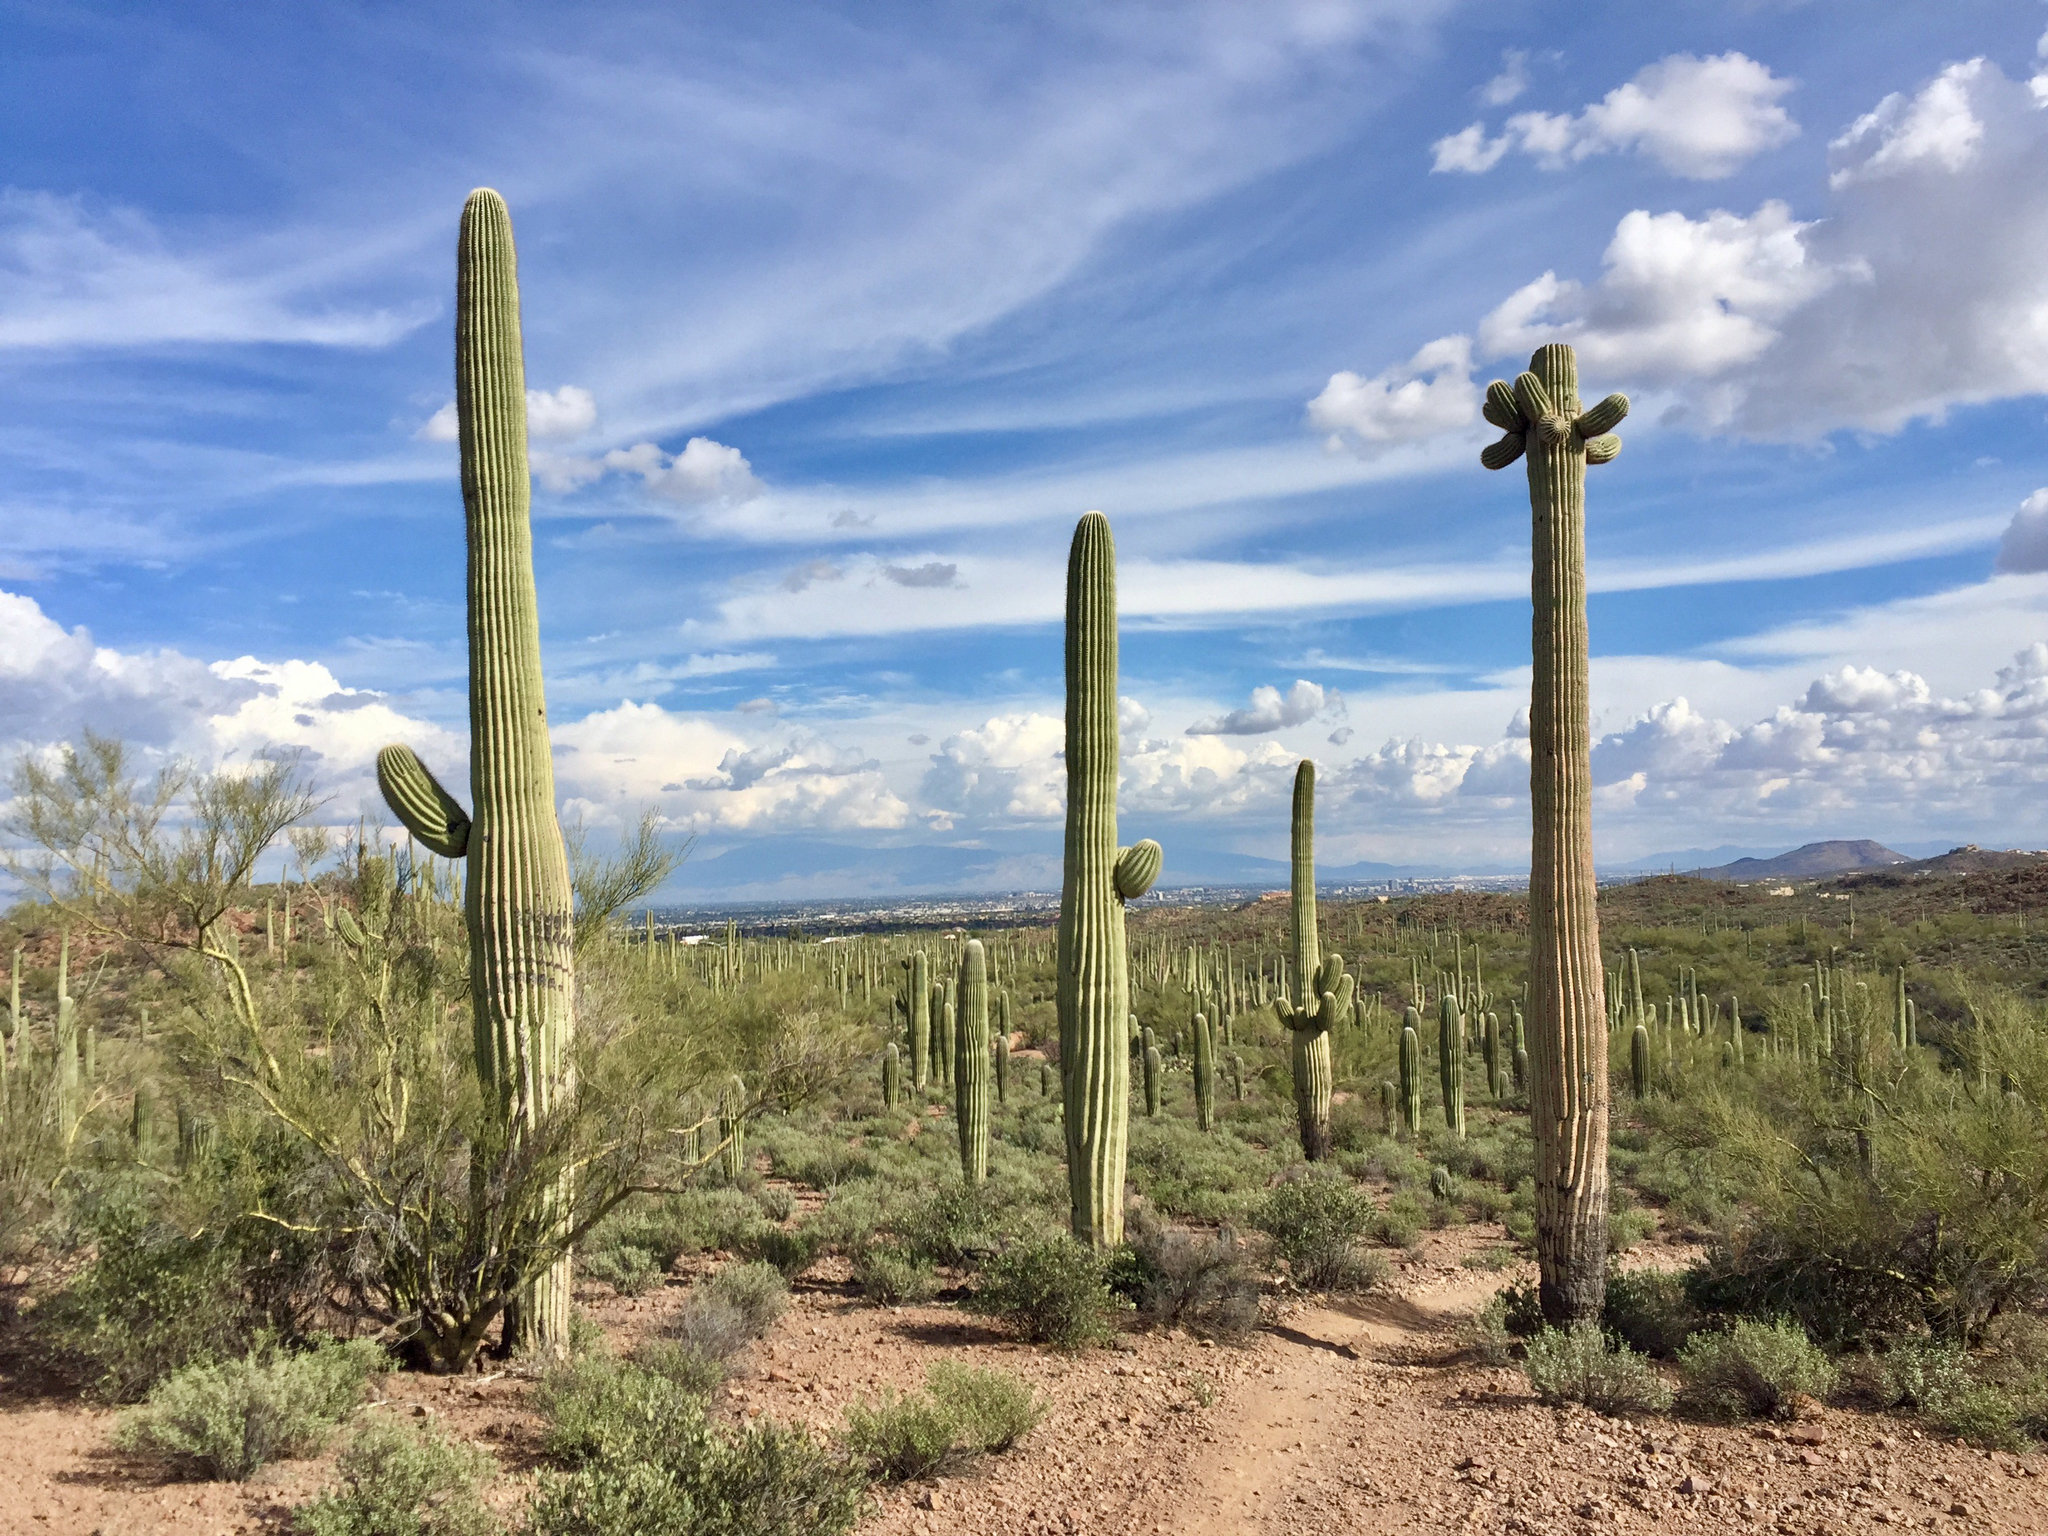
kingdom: Plantae
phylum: Tracheophyta
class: Magnoliopsida
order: Caryophyllales
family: Cactaceae
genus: Carnegiea
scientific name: Carnegiea gigantea
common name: Saguaro
